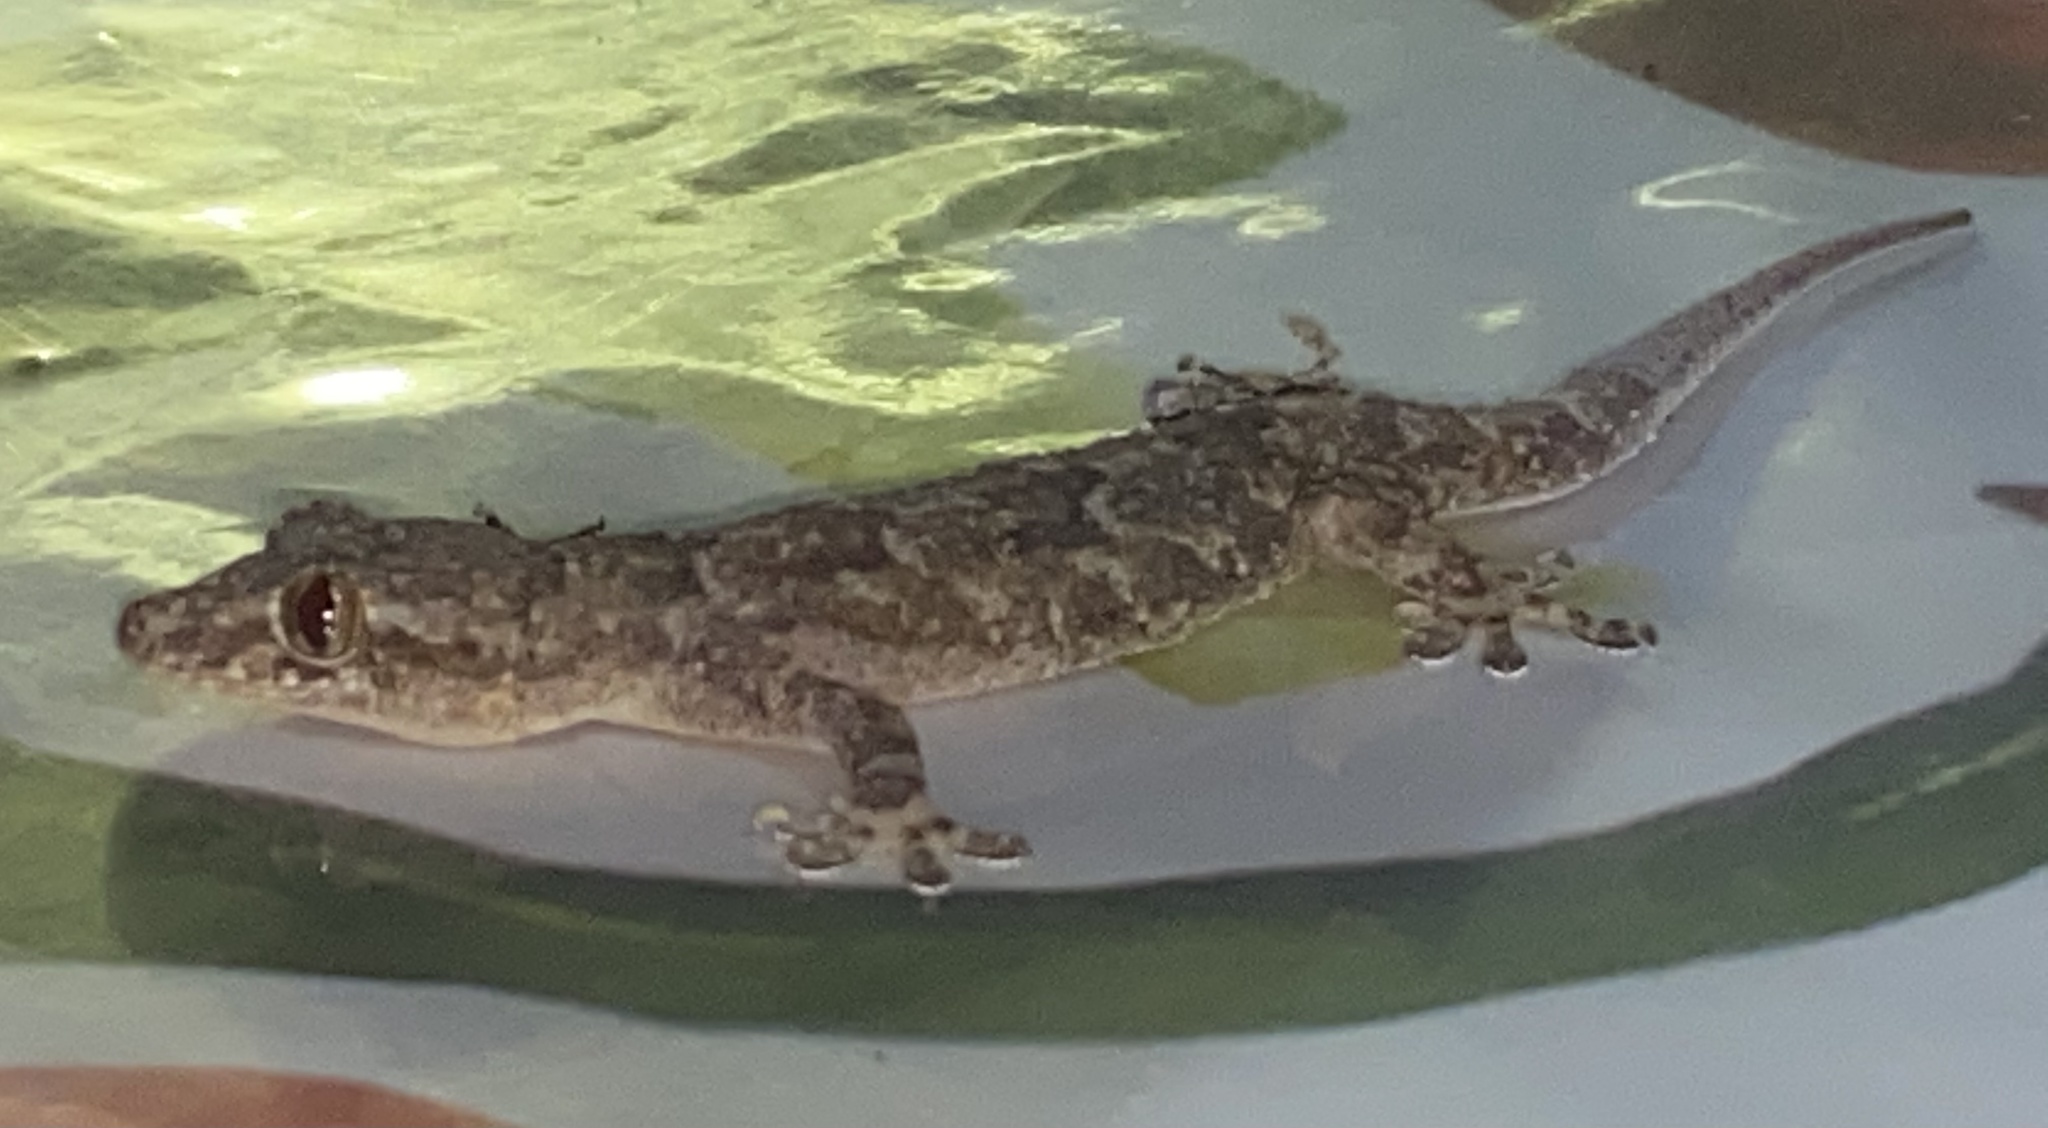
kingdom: Animalia
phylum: Chordata
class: Squamata
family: Gekkonidae
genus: Hemidactylus
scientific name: Hemidactylus mabouia
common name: House gecko
